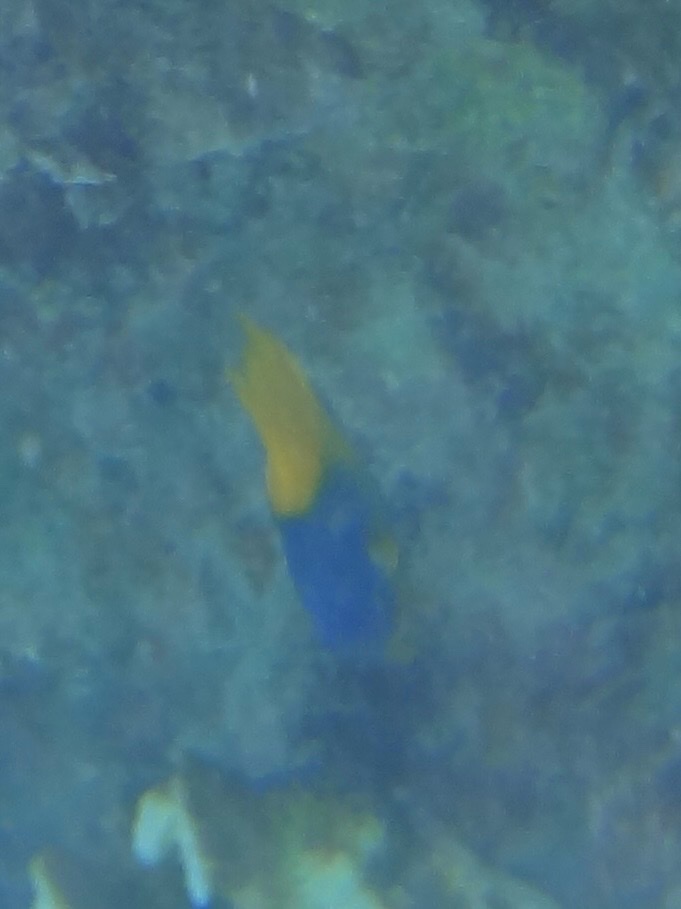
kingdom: Animalia
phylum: Chordata
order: Perciformes
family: Grammatidae
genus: Gramma
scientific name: Gramma loreto
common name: Fairy basslet
